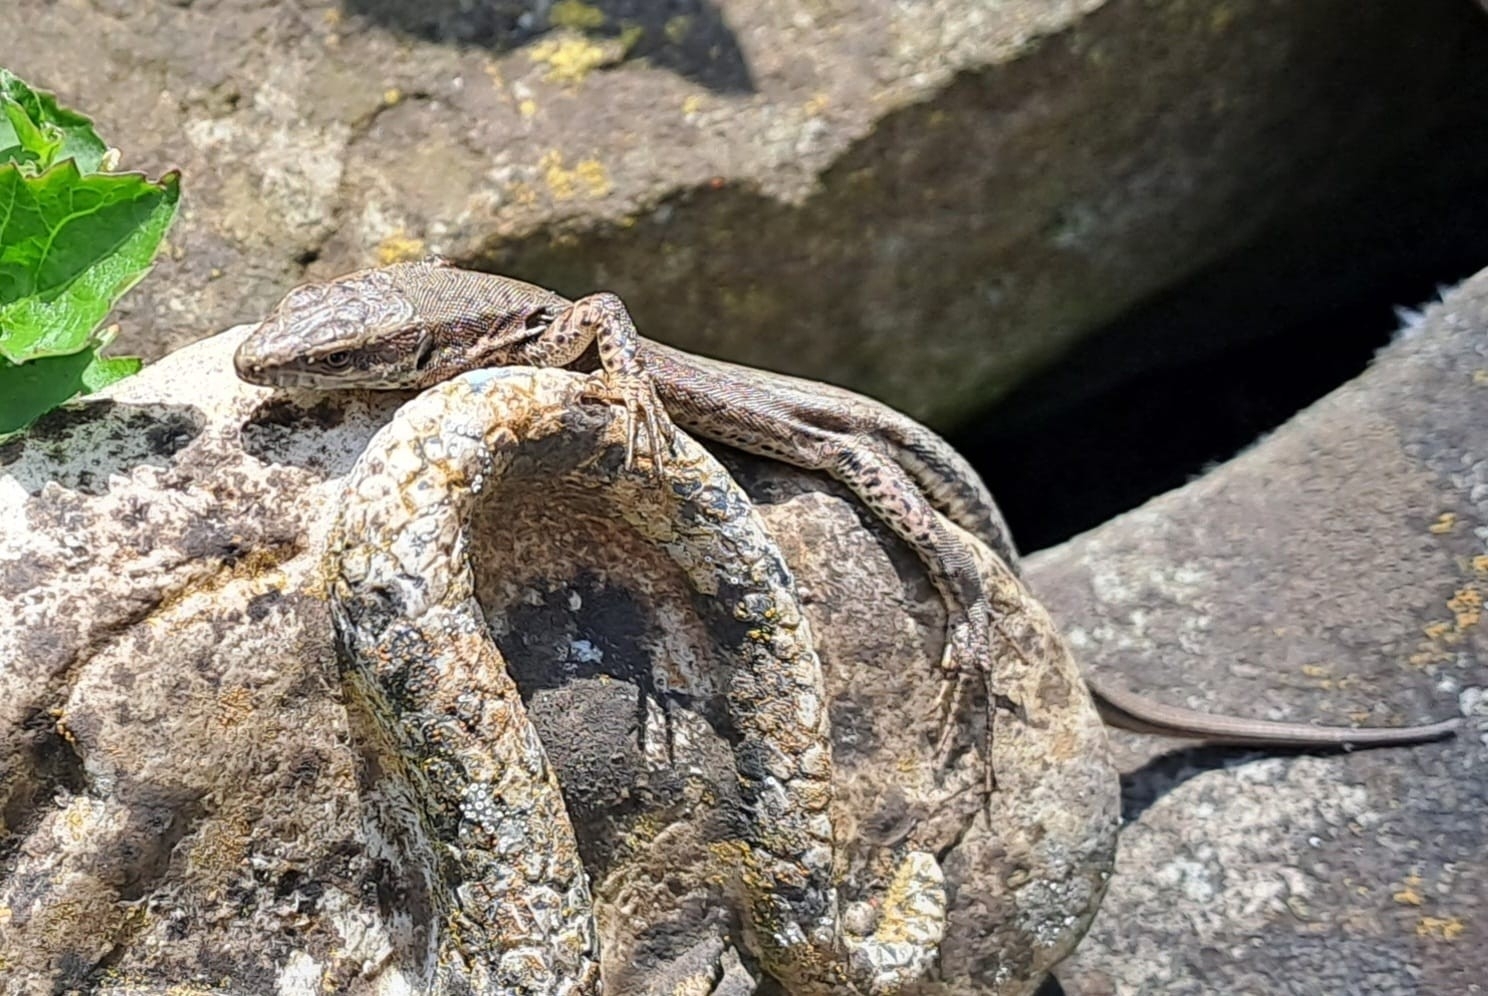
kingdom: Animalia
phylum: Chordata
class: Squamata
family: Lacertidae
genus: Podarcis
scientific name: Podarcis muralis
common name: Common wall lizard
